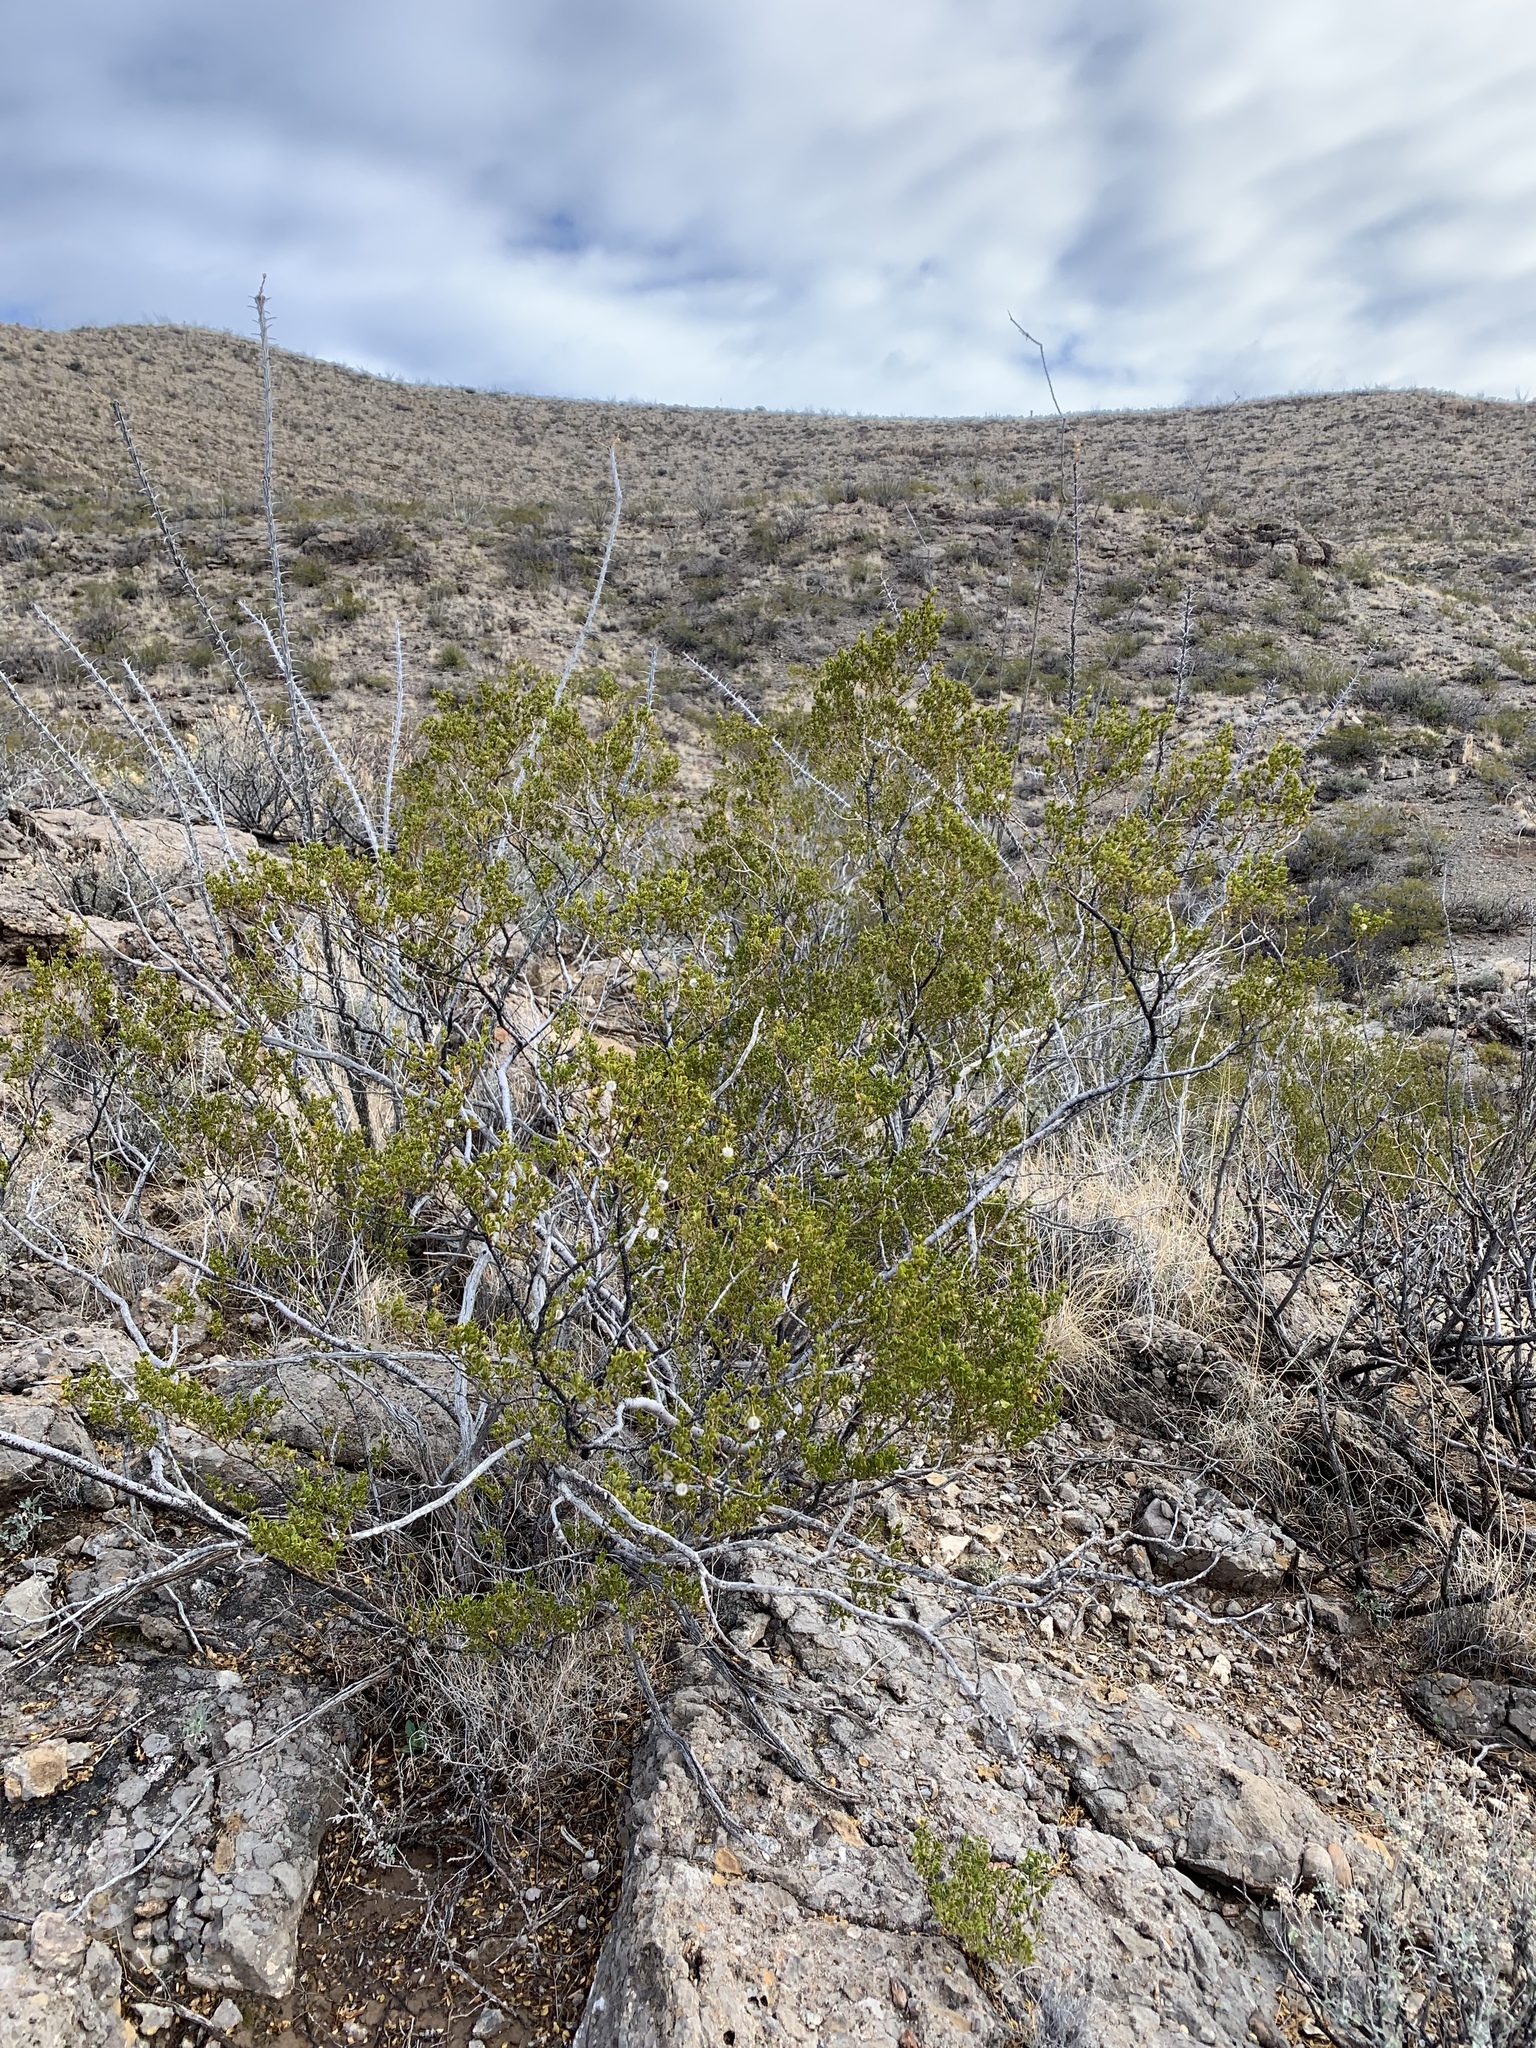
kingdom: Plantae
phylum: Tracheophyta
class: Magnoliopsida
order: Zygophyllales
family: Zygophyllaceae
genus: Larrea
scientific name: Larrea tridentata
